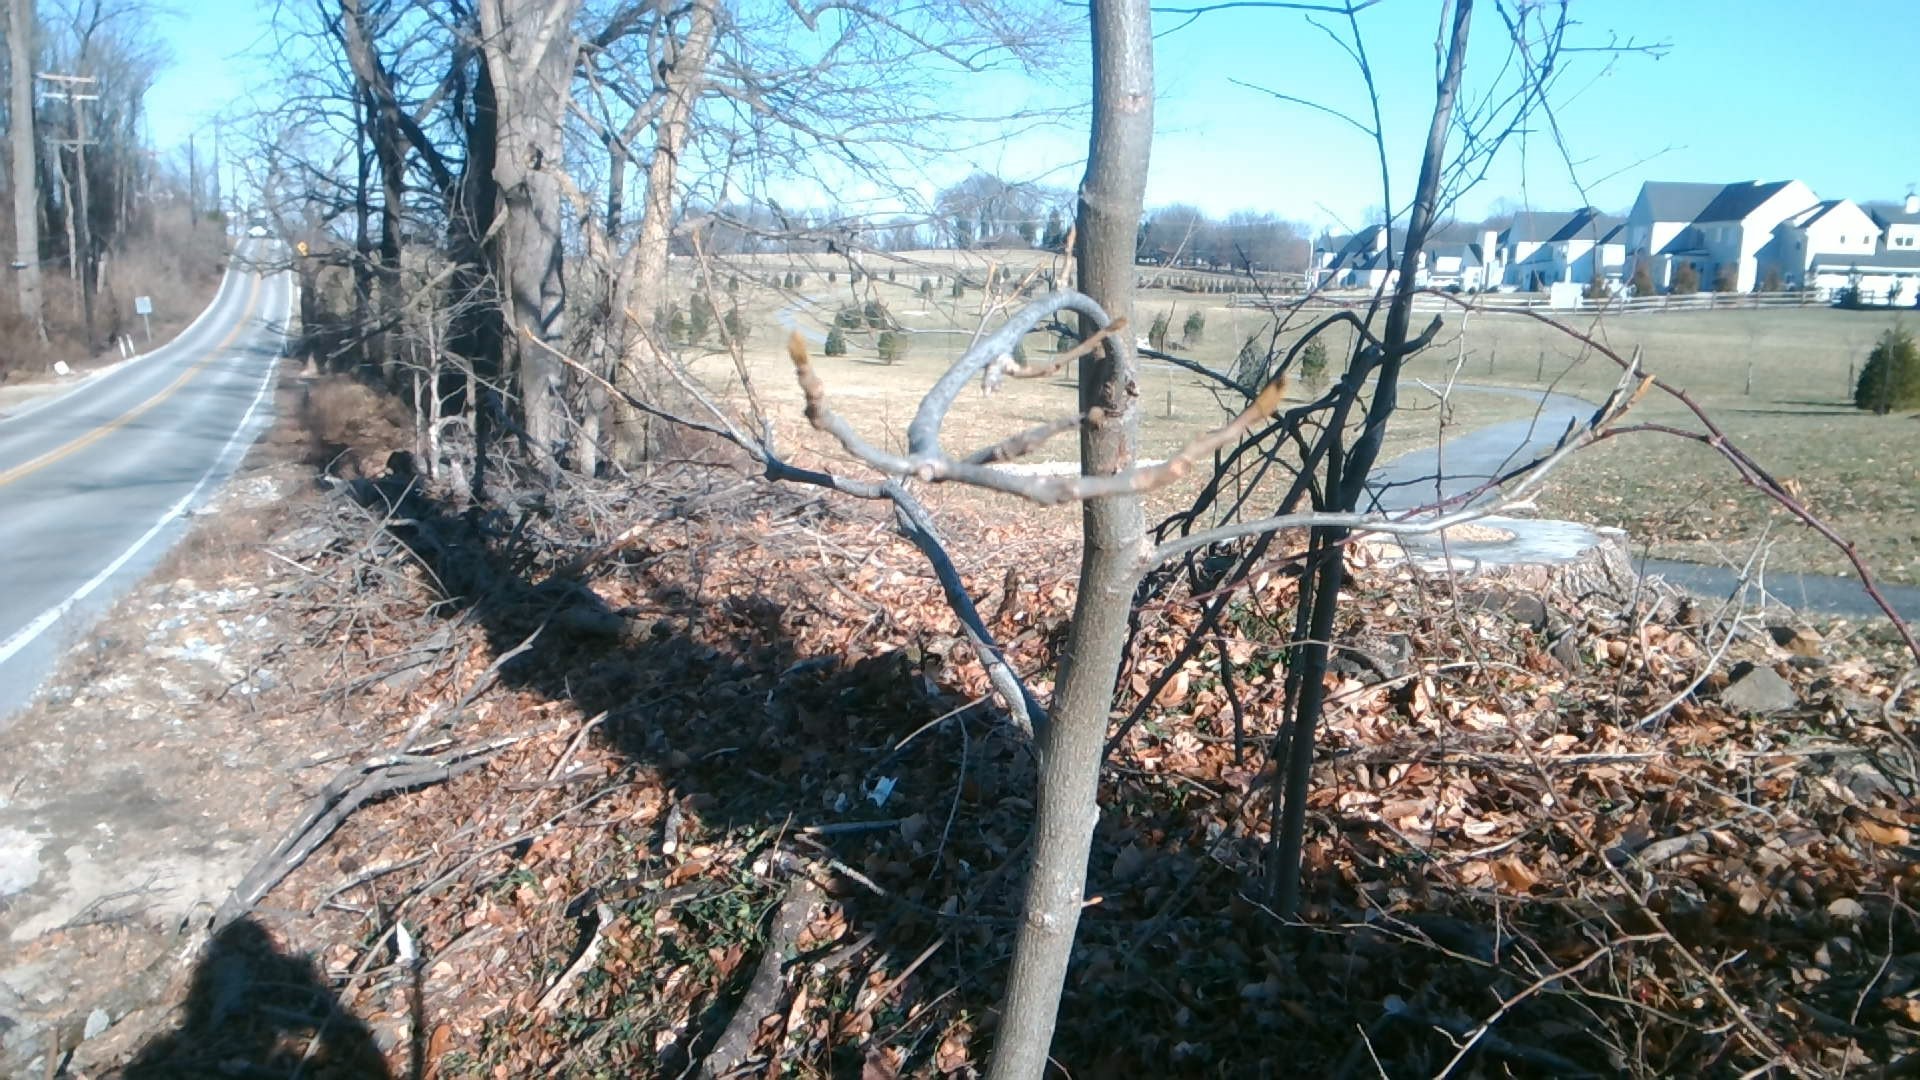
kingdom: Plantae
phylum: Tracheophyta
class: Magnoliopsida
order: Fagales
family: Juglandaceae
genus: Carya
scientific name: Carya cordiformis
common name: Bitternut hickory
